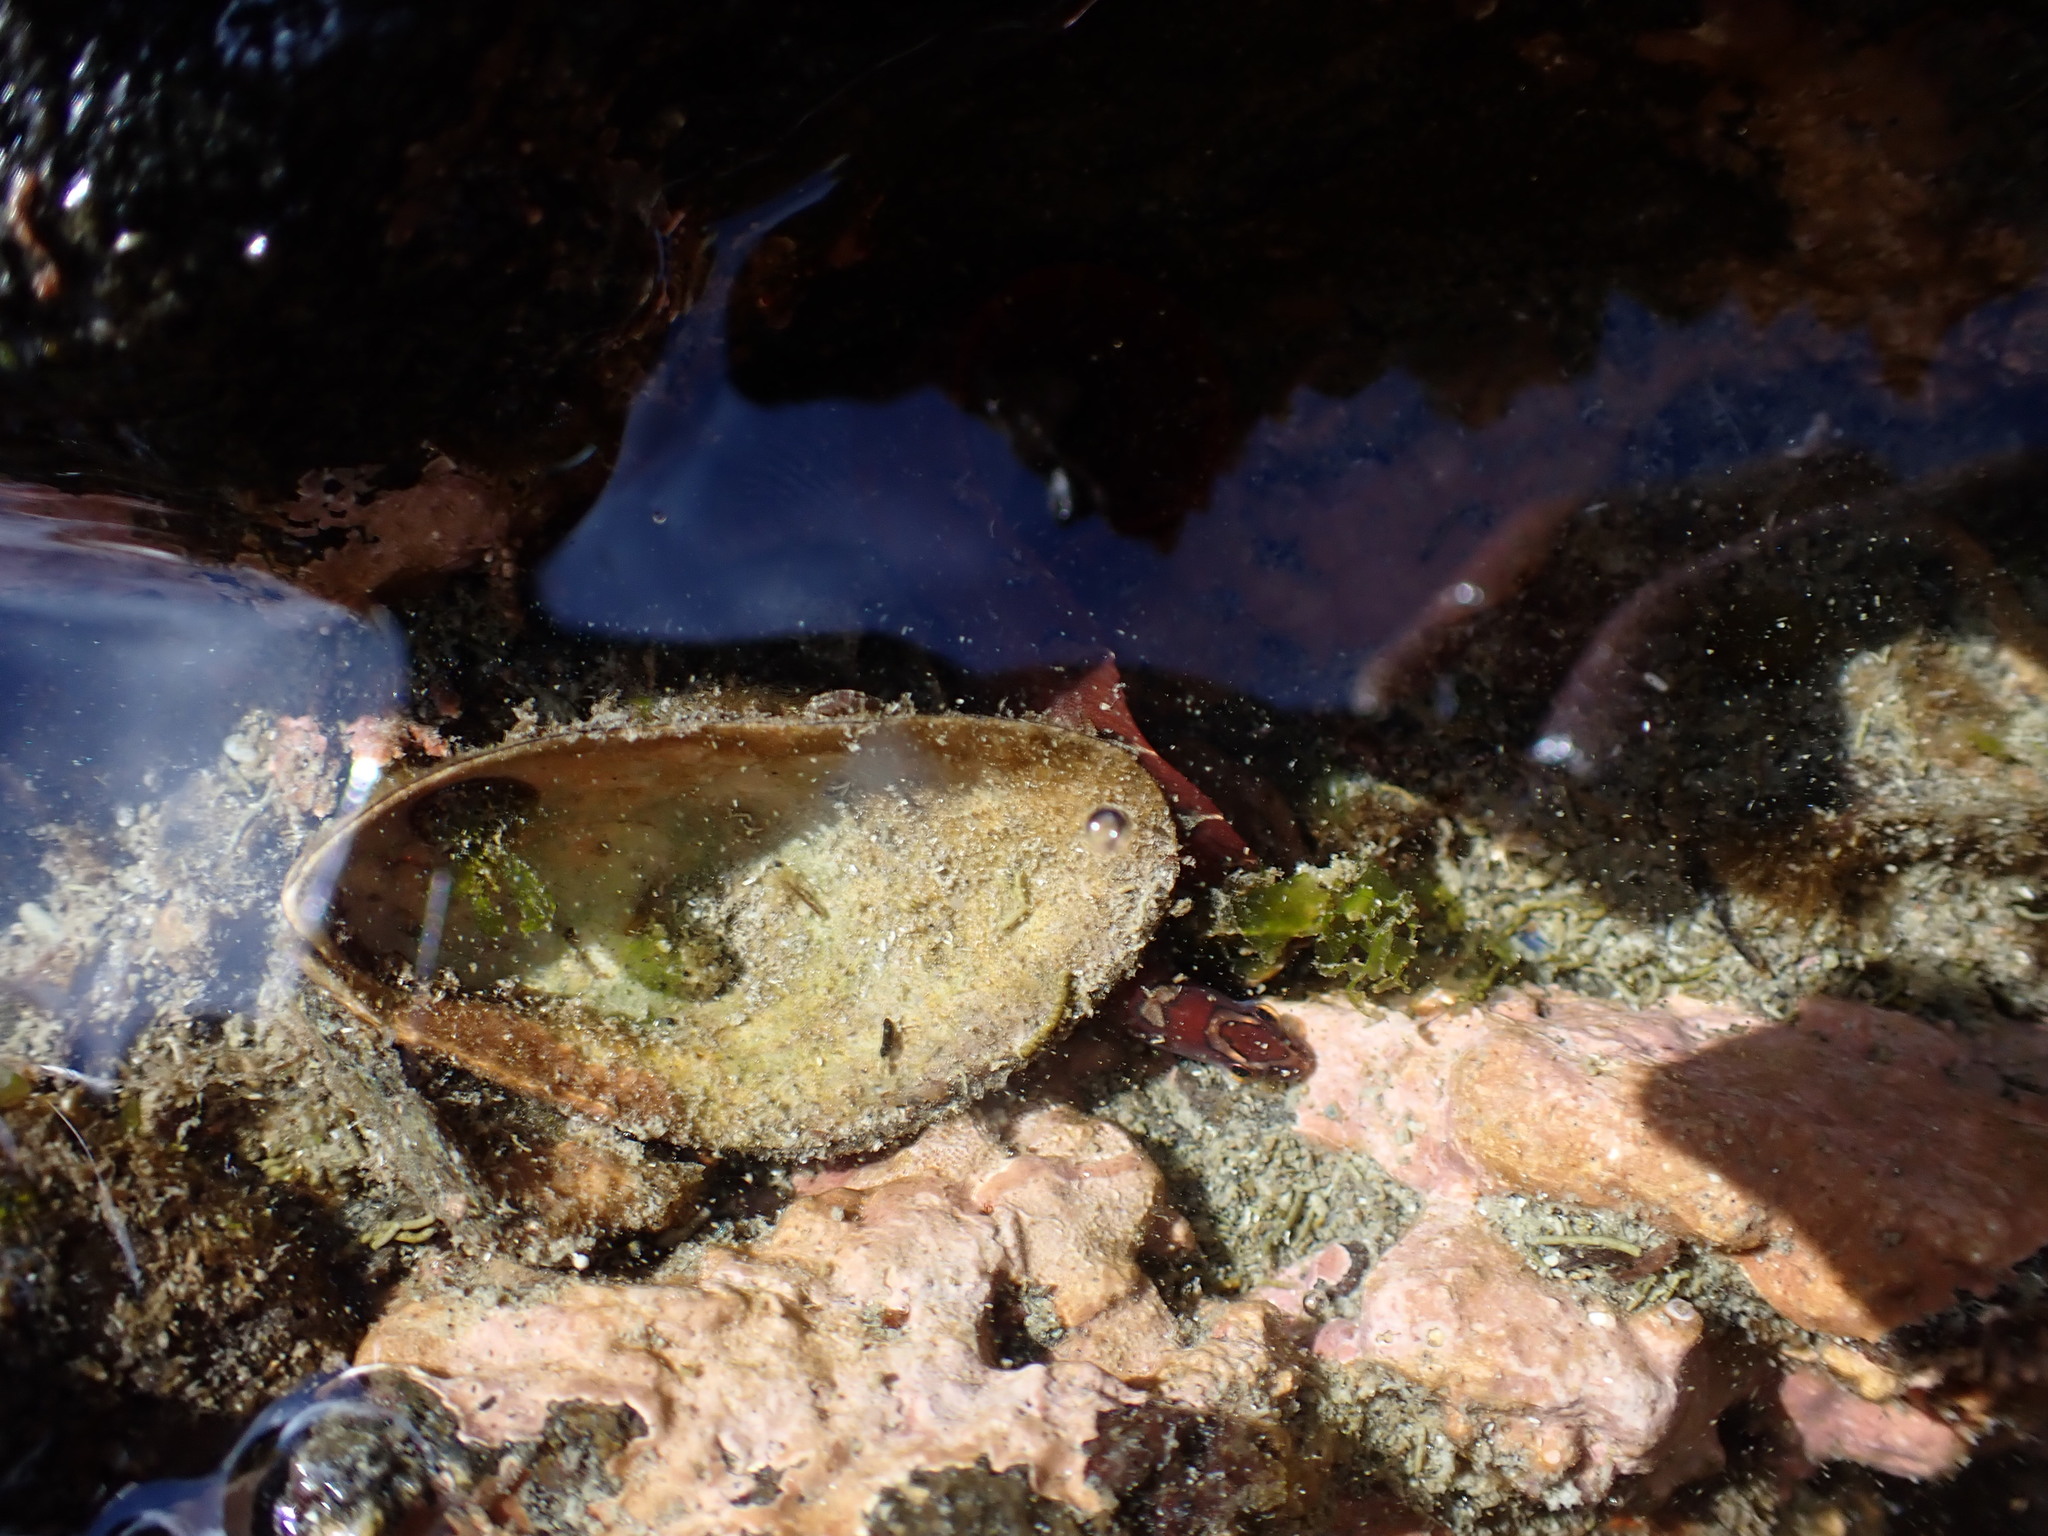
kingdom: Animalia
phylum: Chordata
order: Perciformes
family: Pholidae
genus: Pholis
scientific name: Pholis laeta
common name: Crescent gunnel
